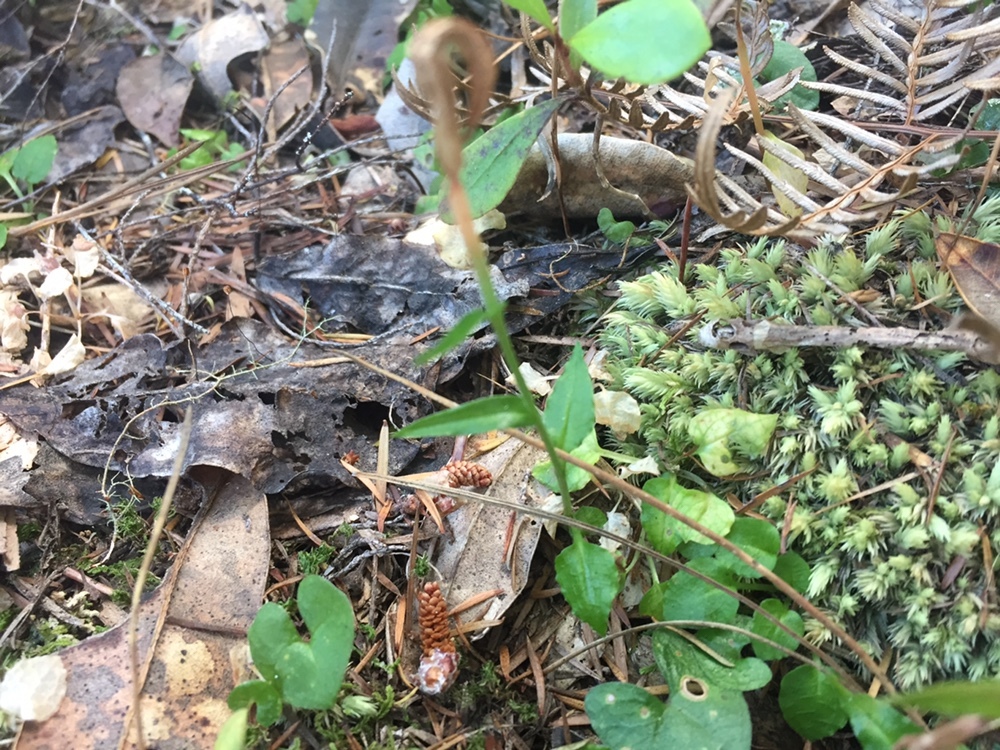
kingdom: Plantae
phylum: Tracheophyta
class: Liliopsida
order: Asparagales
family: Orchidaceae
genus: Pterostylis
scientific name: Pterostylis trullifolia
